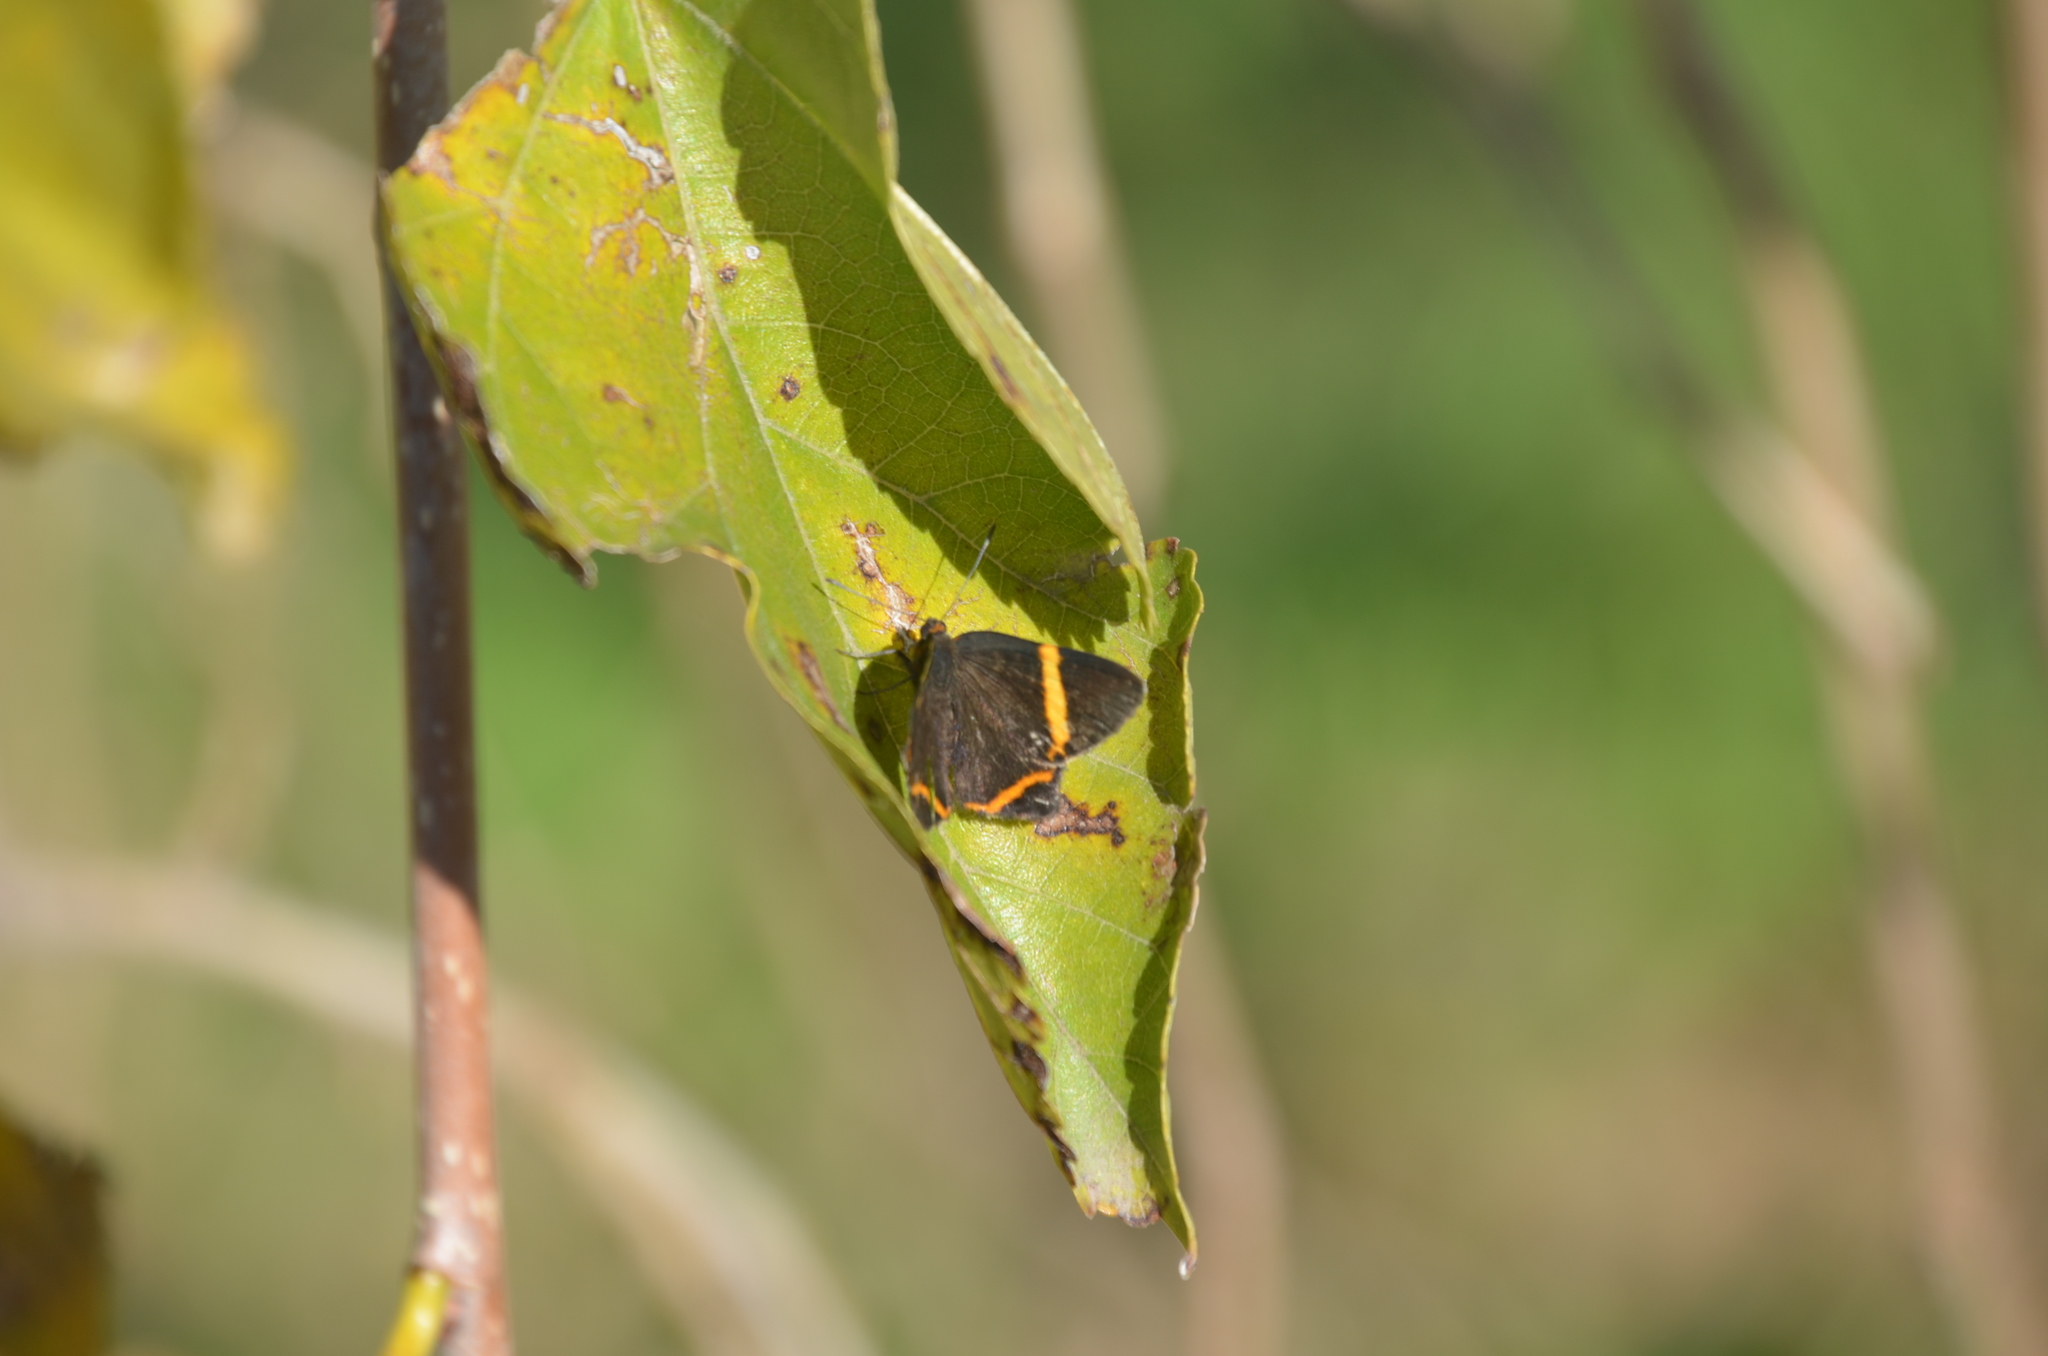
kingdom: Animalia
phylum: Arthropoda
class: Insecta
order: Lepidoptera
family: Riodinidae
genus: Riodina
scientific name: Riodina lysippoides
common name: Little dancer metalmark
